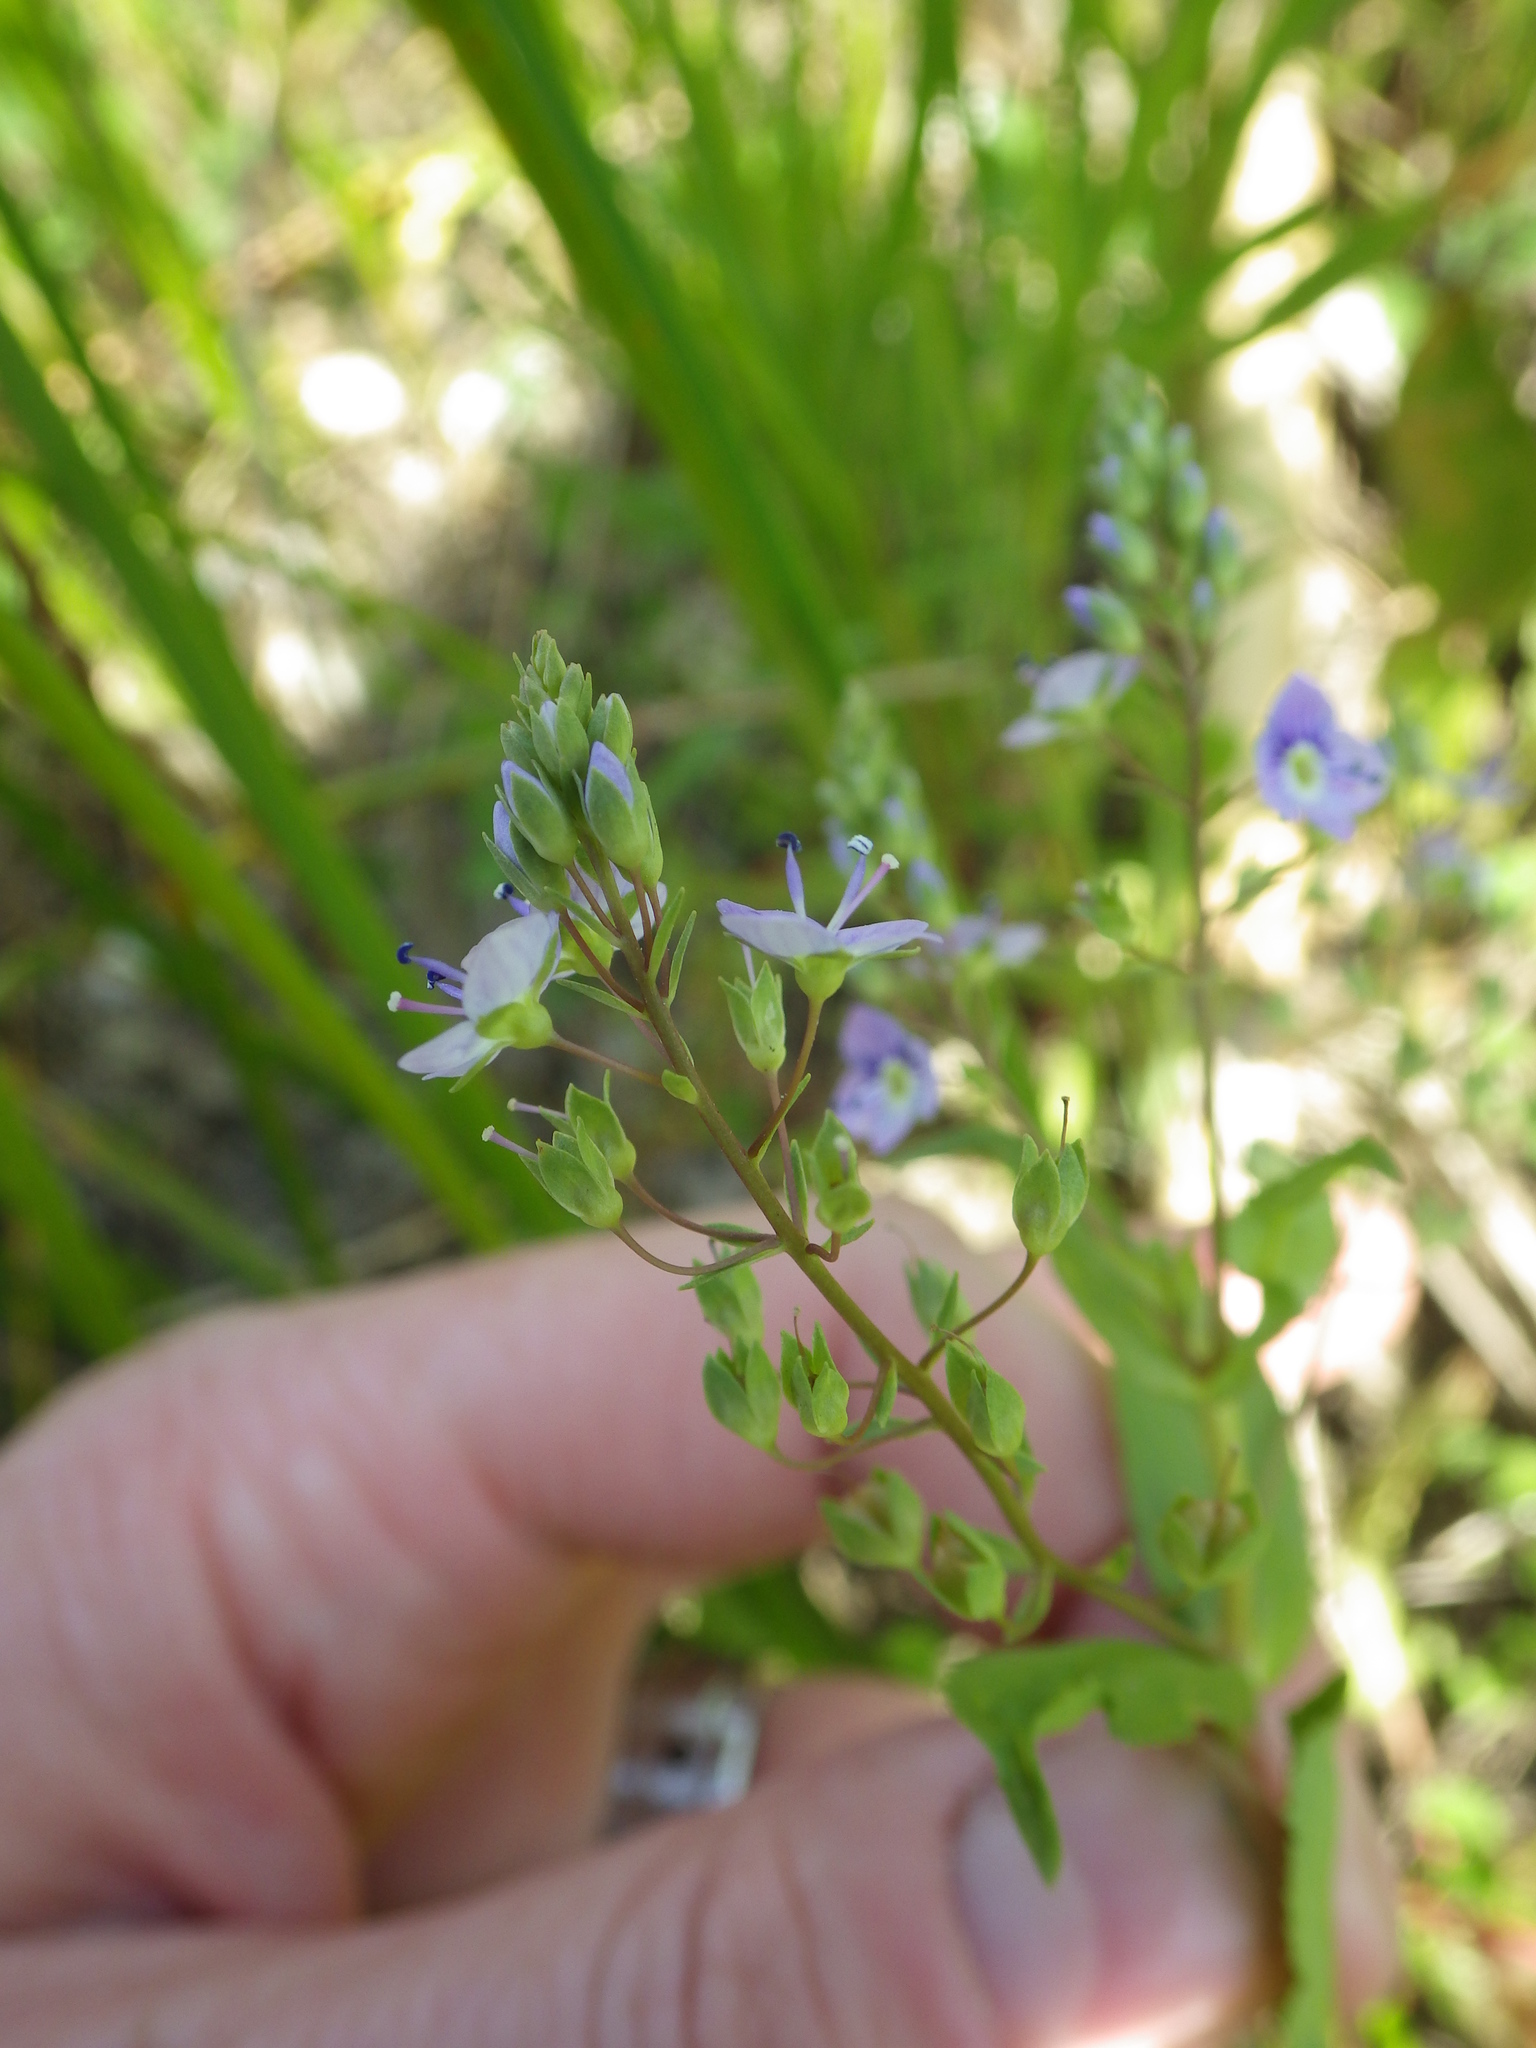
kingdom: Plantae
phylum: Tracheophyta
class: Magnoliopsida
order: Lamiales
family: Plantaginaceae
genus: Veronica
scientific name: Veronica anagallis-aquatica
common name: Water speedwell
